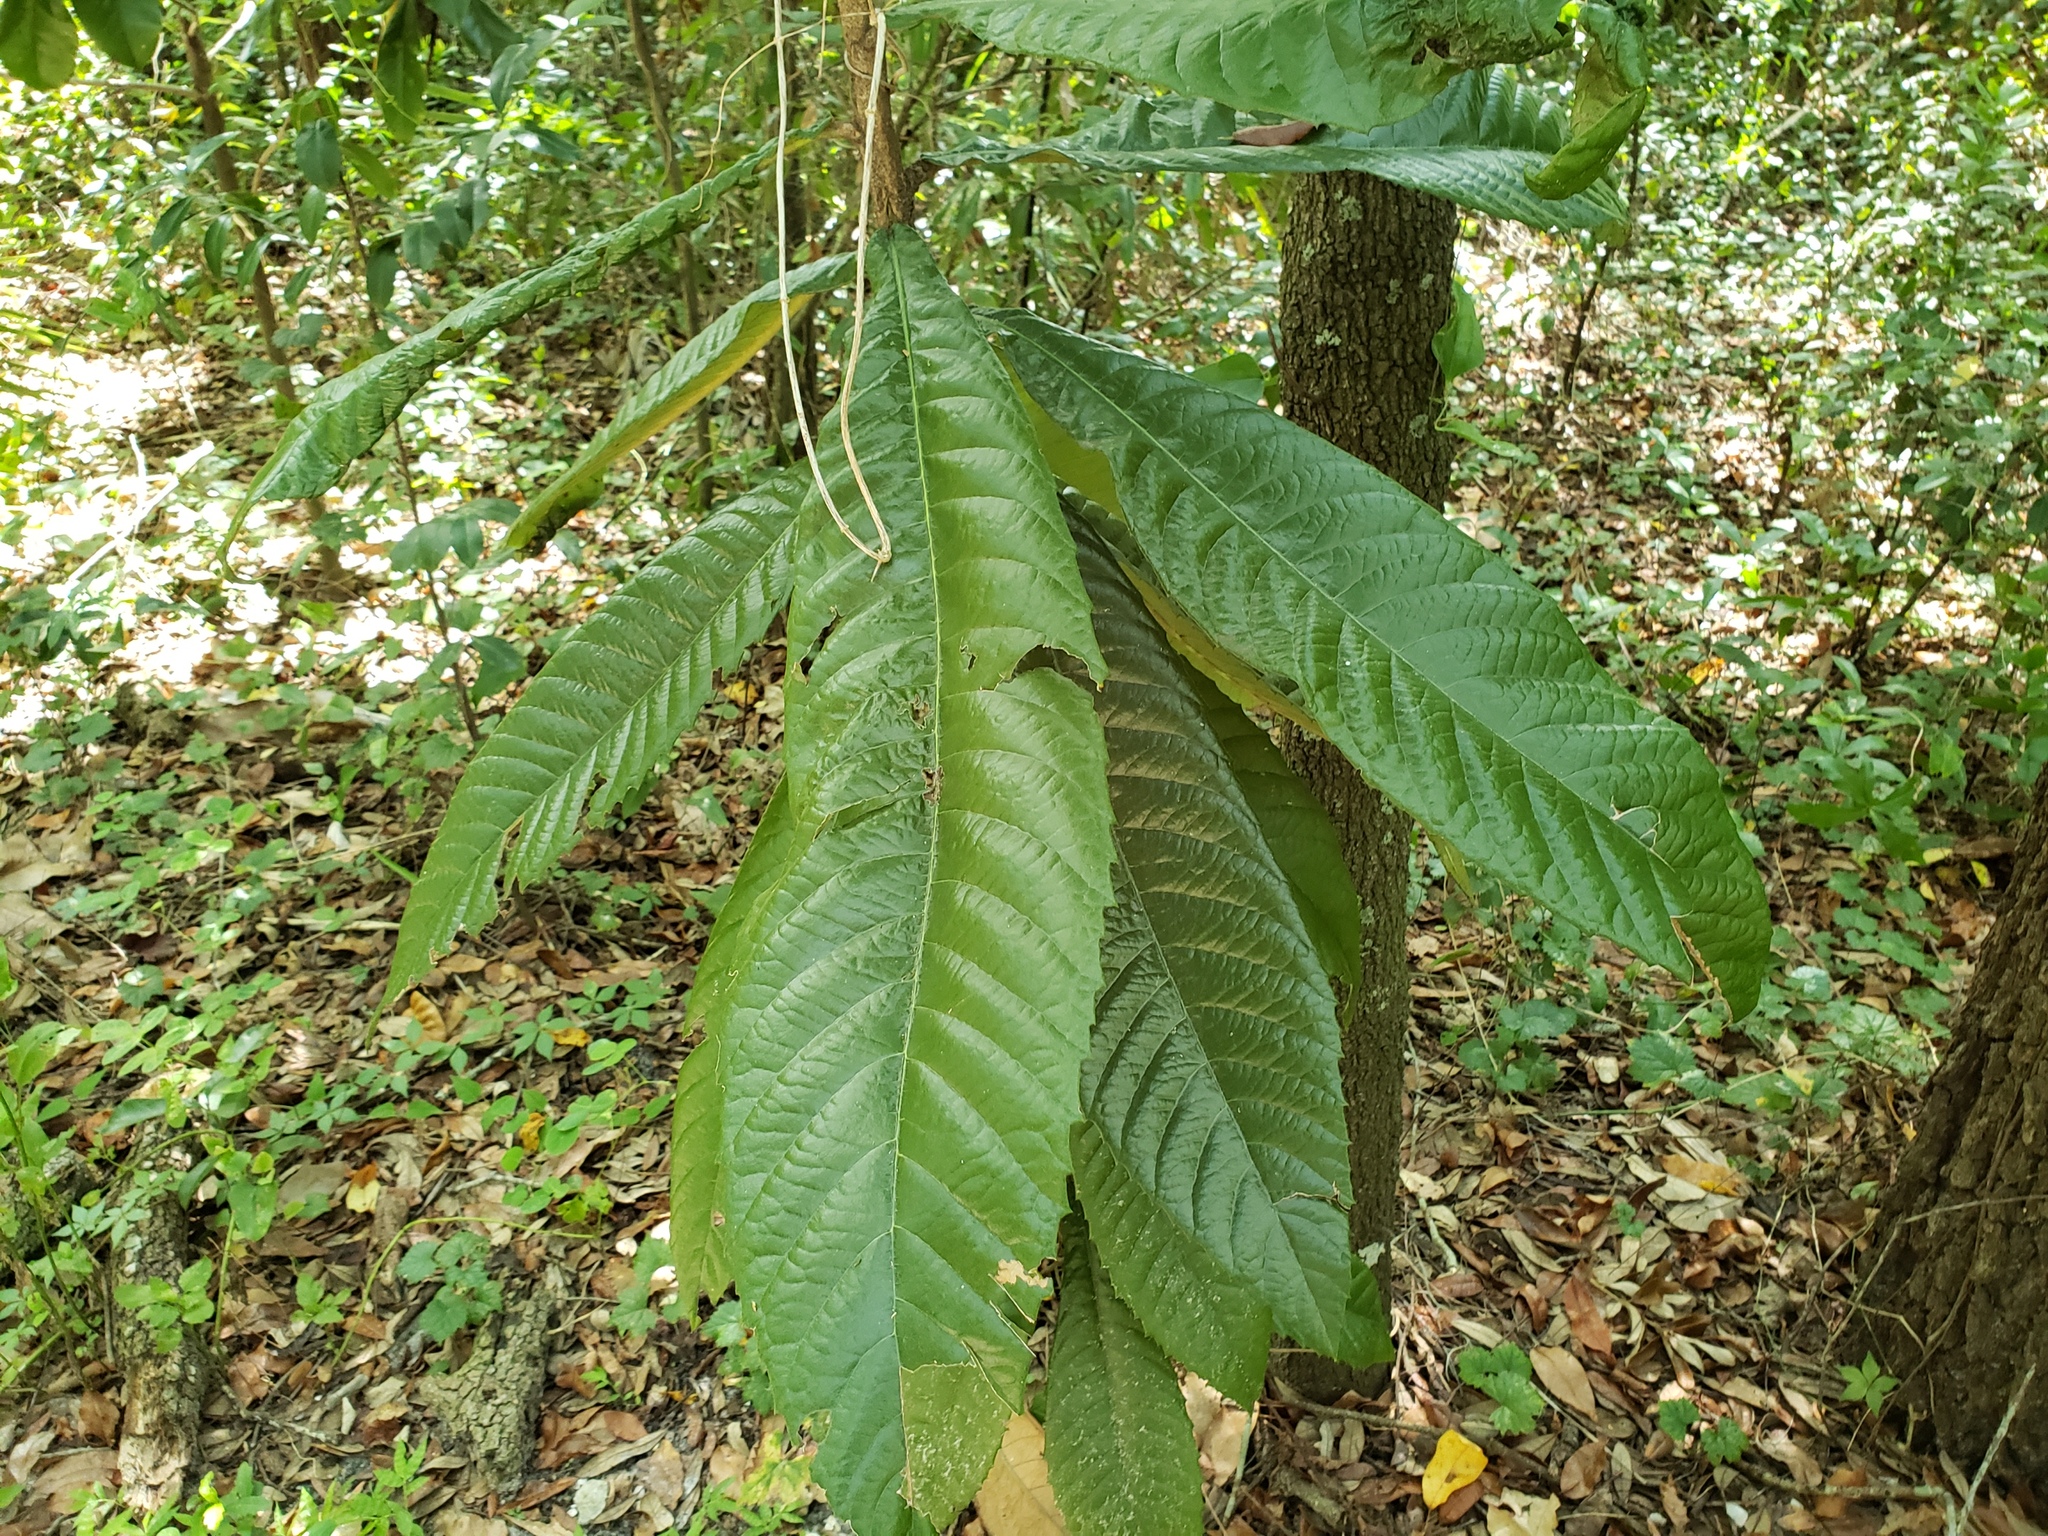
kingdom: Plantae
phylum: Tracheophyta
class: Magnoliopsida
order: Rosales
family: Rosaceae
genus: Rhaphiolepis
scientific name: Rhaphiolepis bibas
